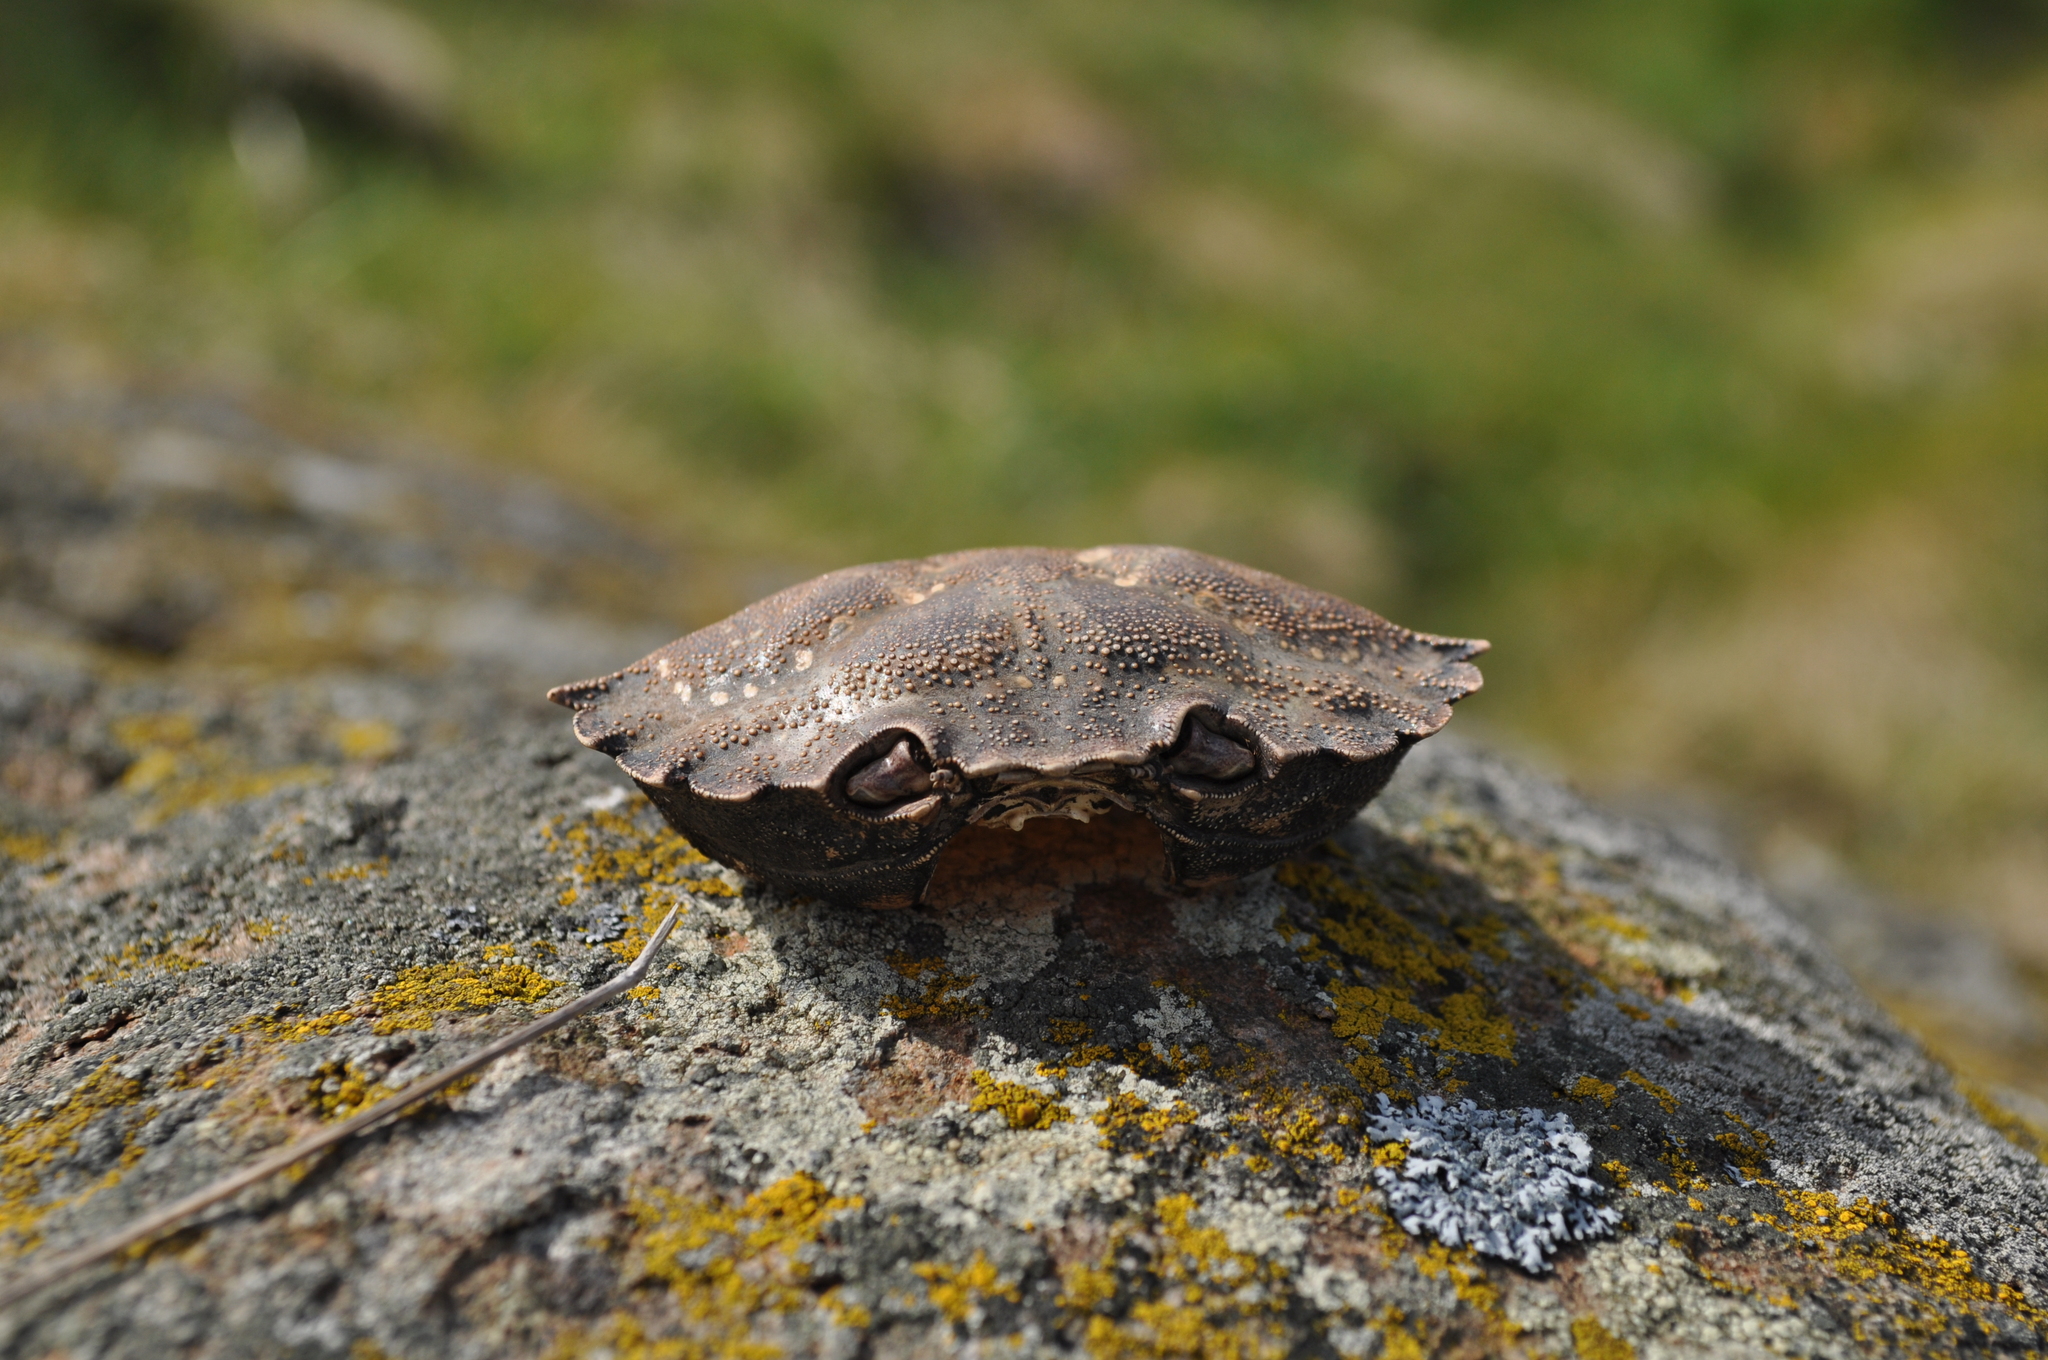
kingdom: Animalia
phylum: Arthropoda
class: Malacostraca
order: Decapoda
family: Carcinidae
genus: Carcinus
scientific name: Carcinus maenas
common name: European green crab
